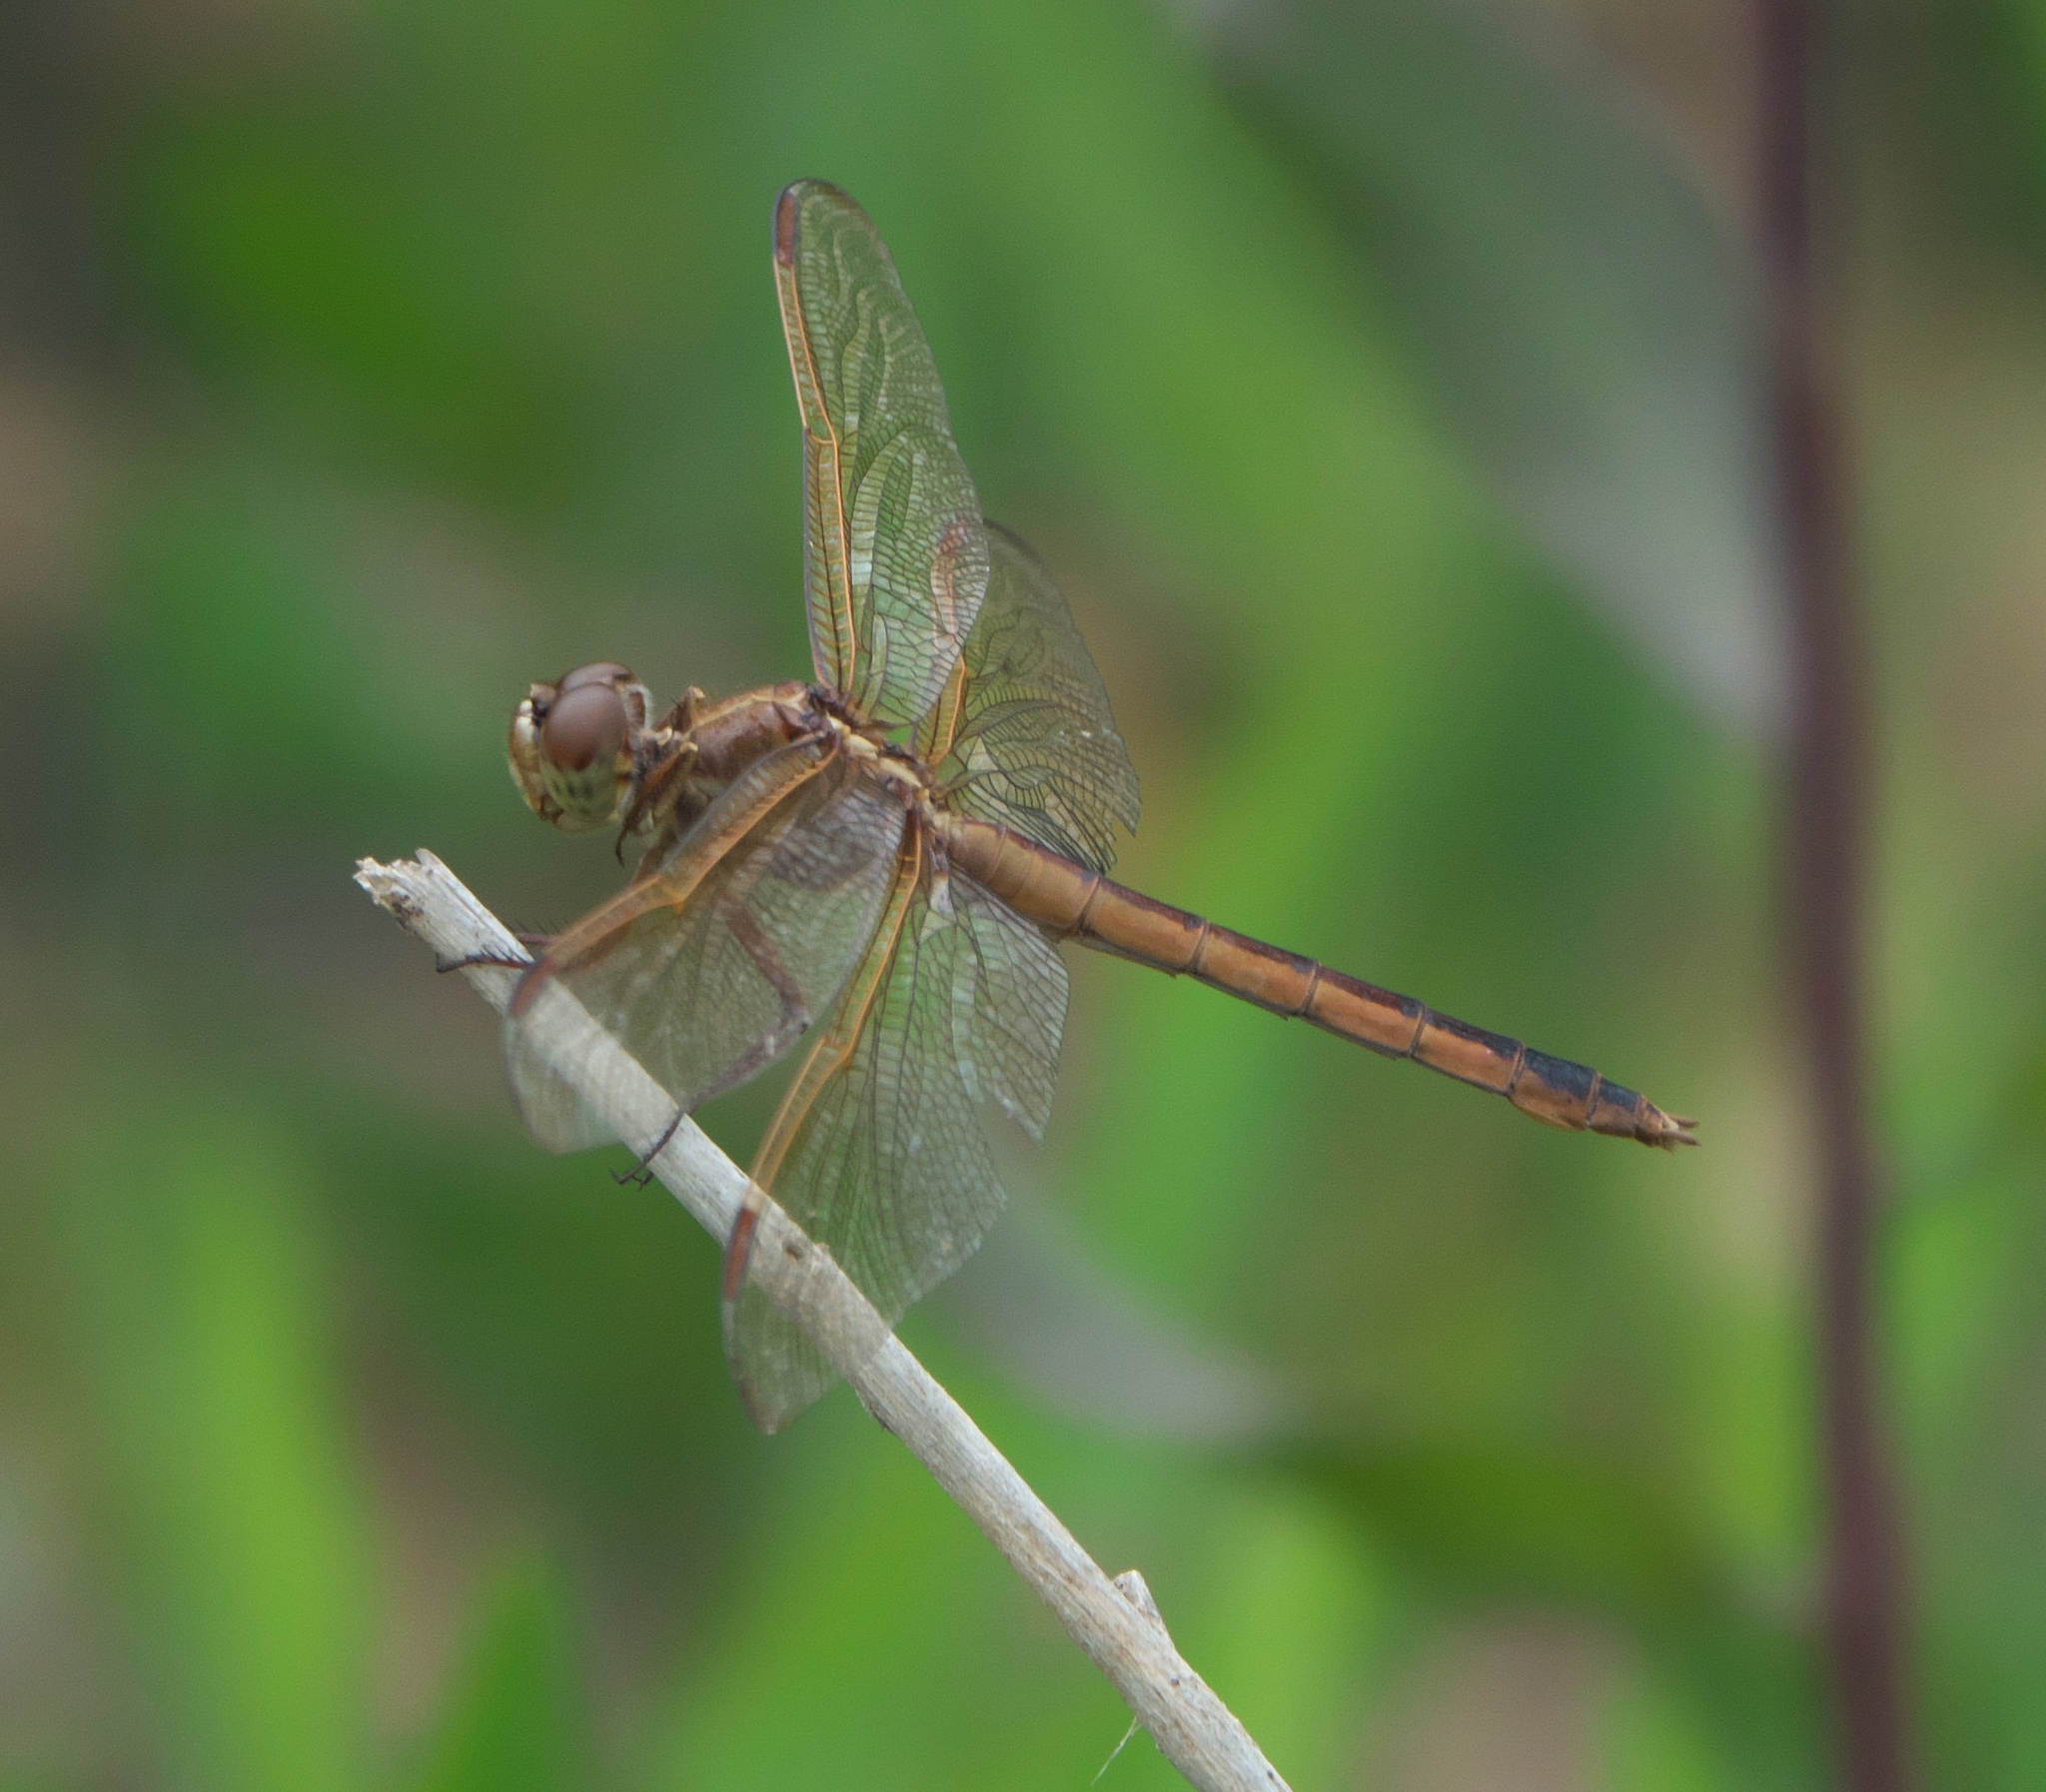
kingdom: Animalia
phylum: Arthropoda
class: Insecta
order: Odonata
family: Libellulidae
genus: Libellula
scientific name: Libellula needhami
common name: Needham's skimmer
